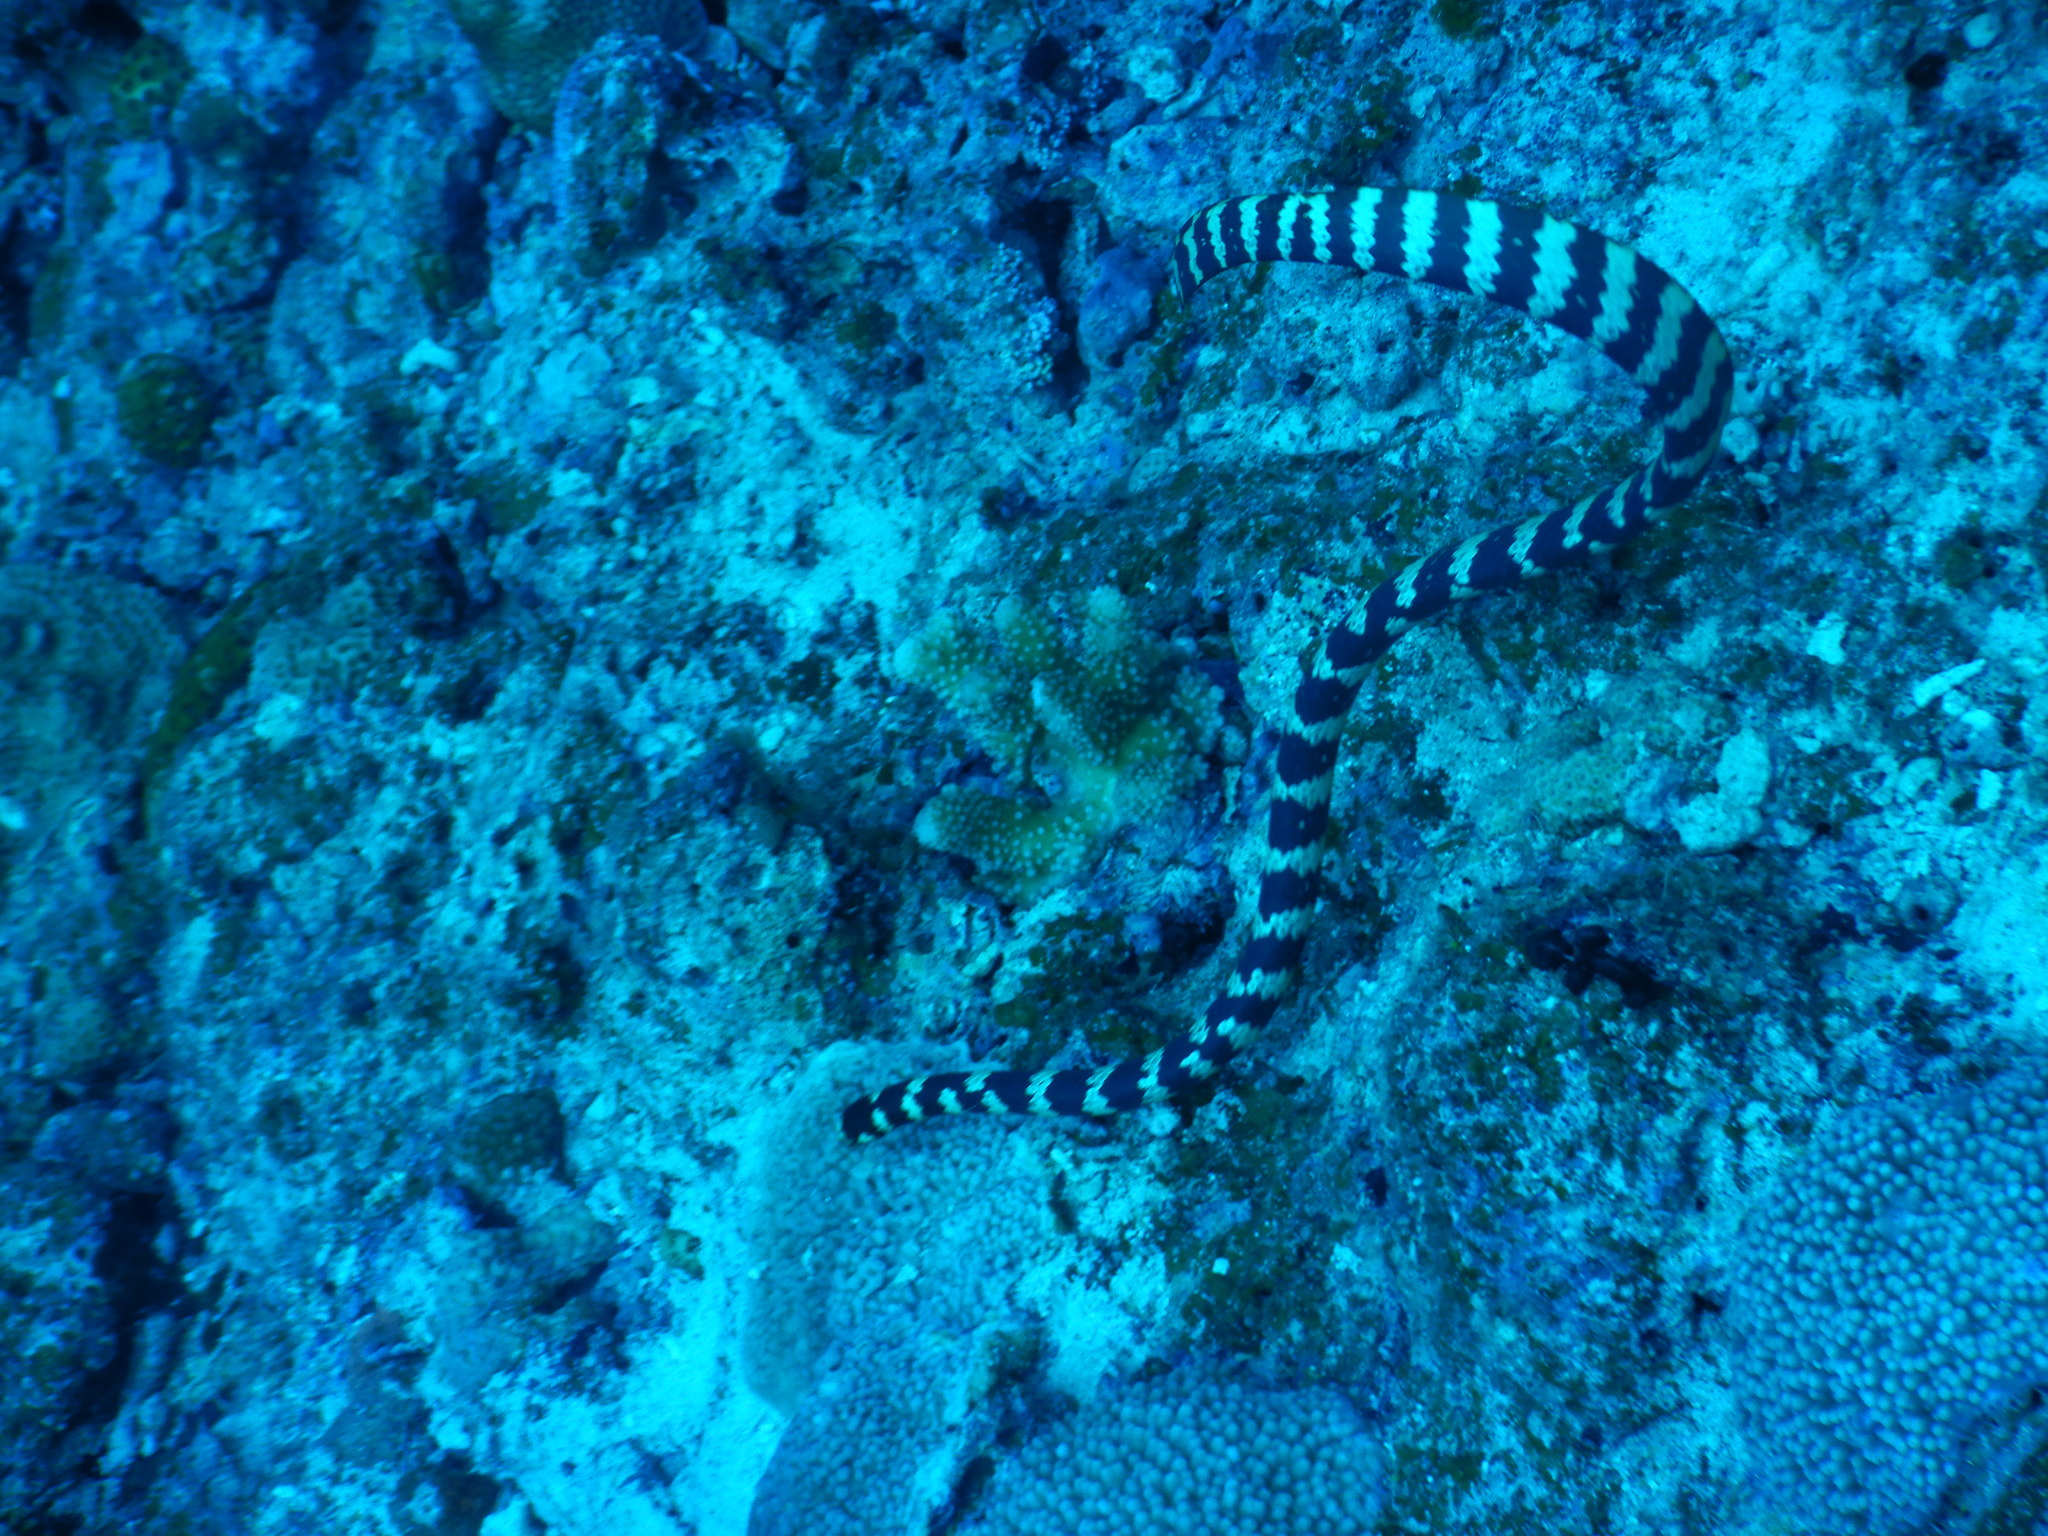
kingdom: Animalia
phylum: Chordata
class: Squamata
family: Elapidae
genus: Emydocephalus
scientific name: Emydocephalus ijimae
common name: Turtlehead sea snake
